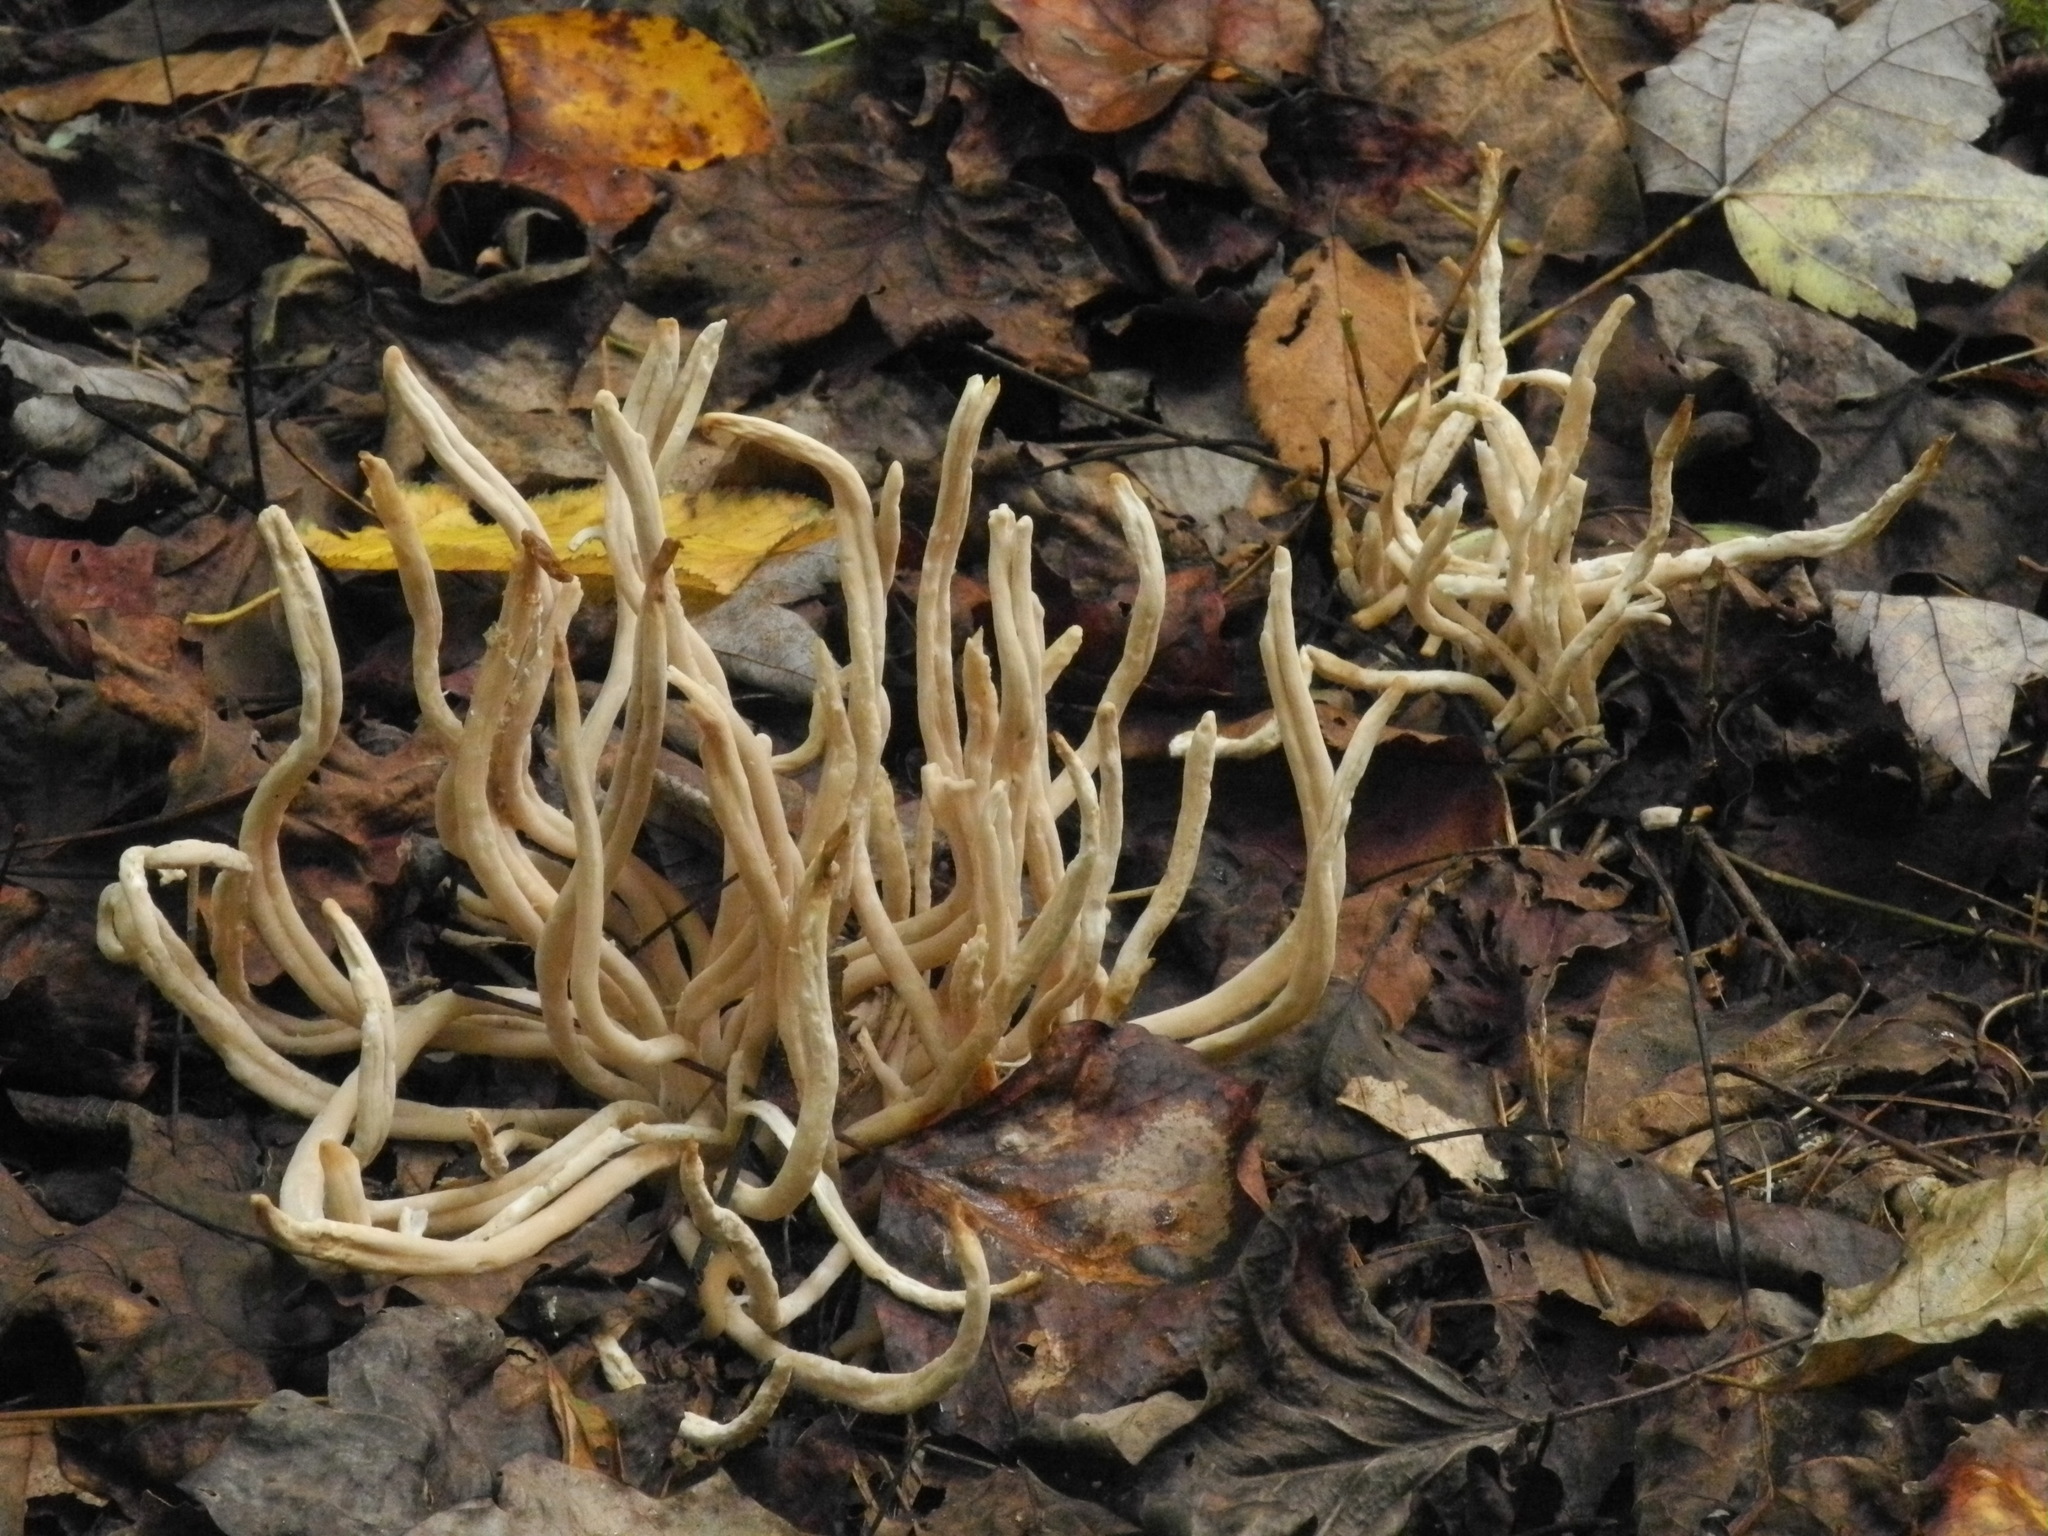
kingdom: Fungi
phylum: Basidiomycota
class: Agaricomycetes
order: Agaricales
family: Clavariaceae
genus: Clavaria
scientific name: Clavaria fumosa
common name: Smoky spindles
